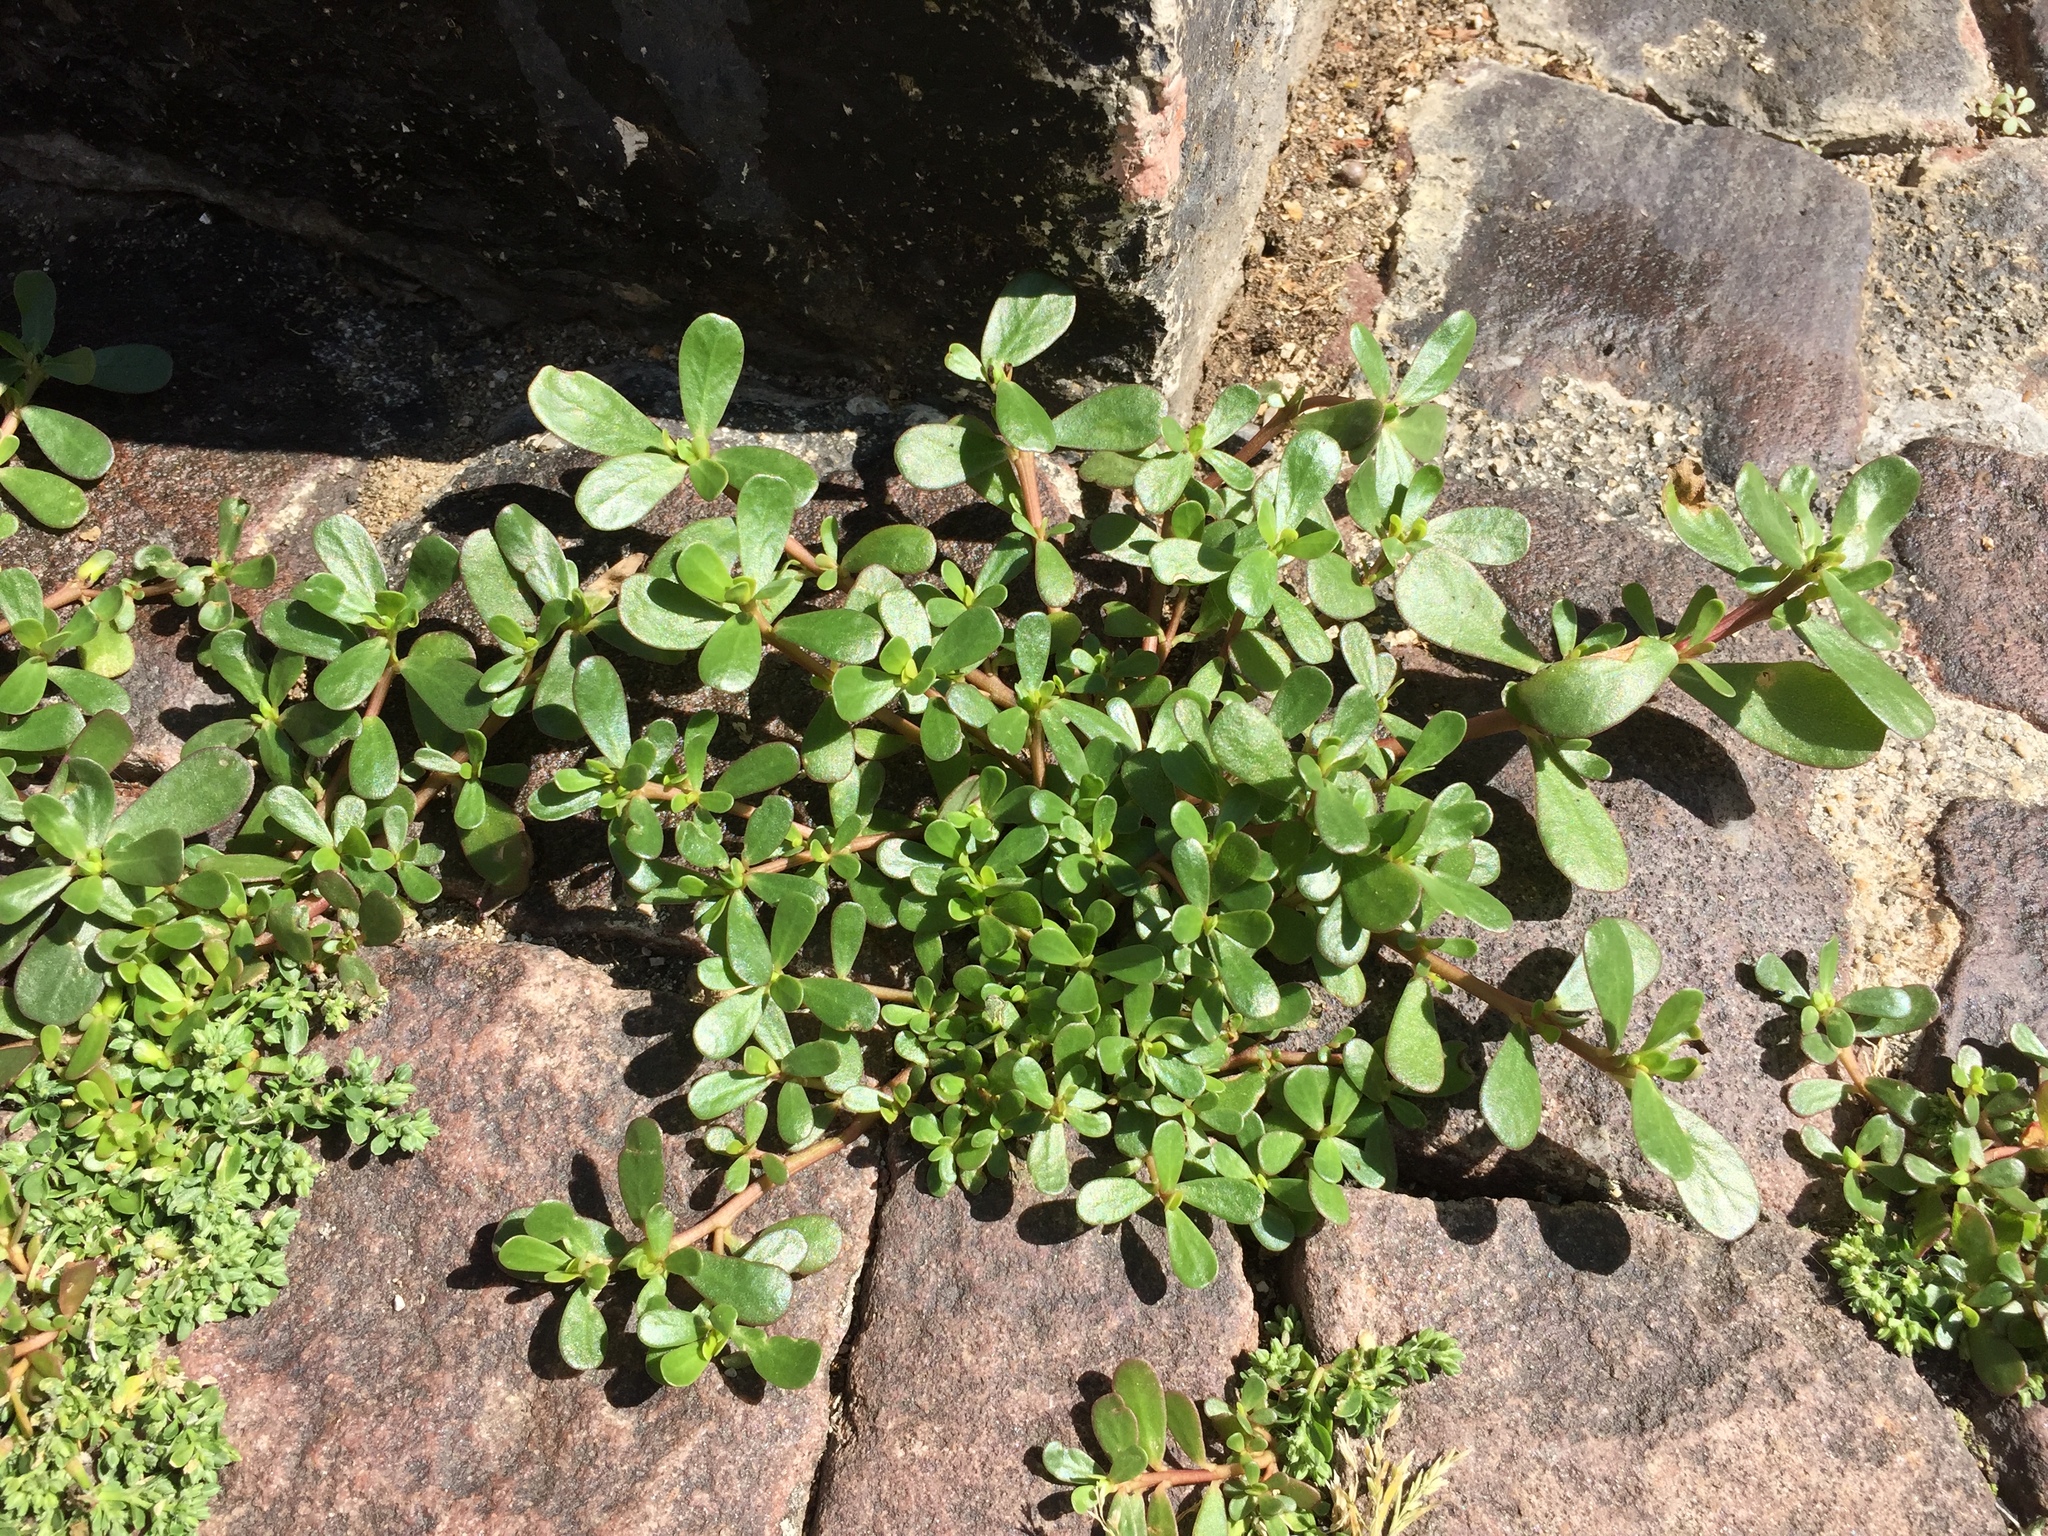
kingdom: Plantae
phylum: Tracheophyta
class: Magnoliopsida
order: Caryophyllales
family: Portulacaceae
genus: Portulaca
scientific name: Portulaca oleracea
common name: Common purslane
